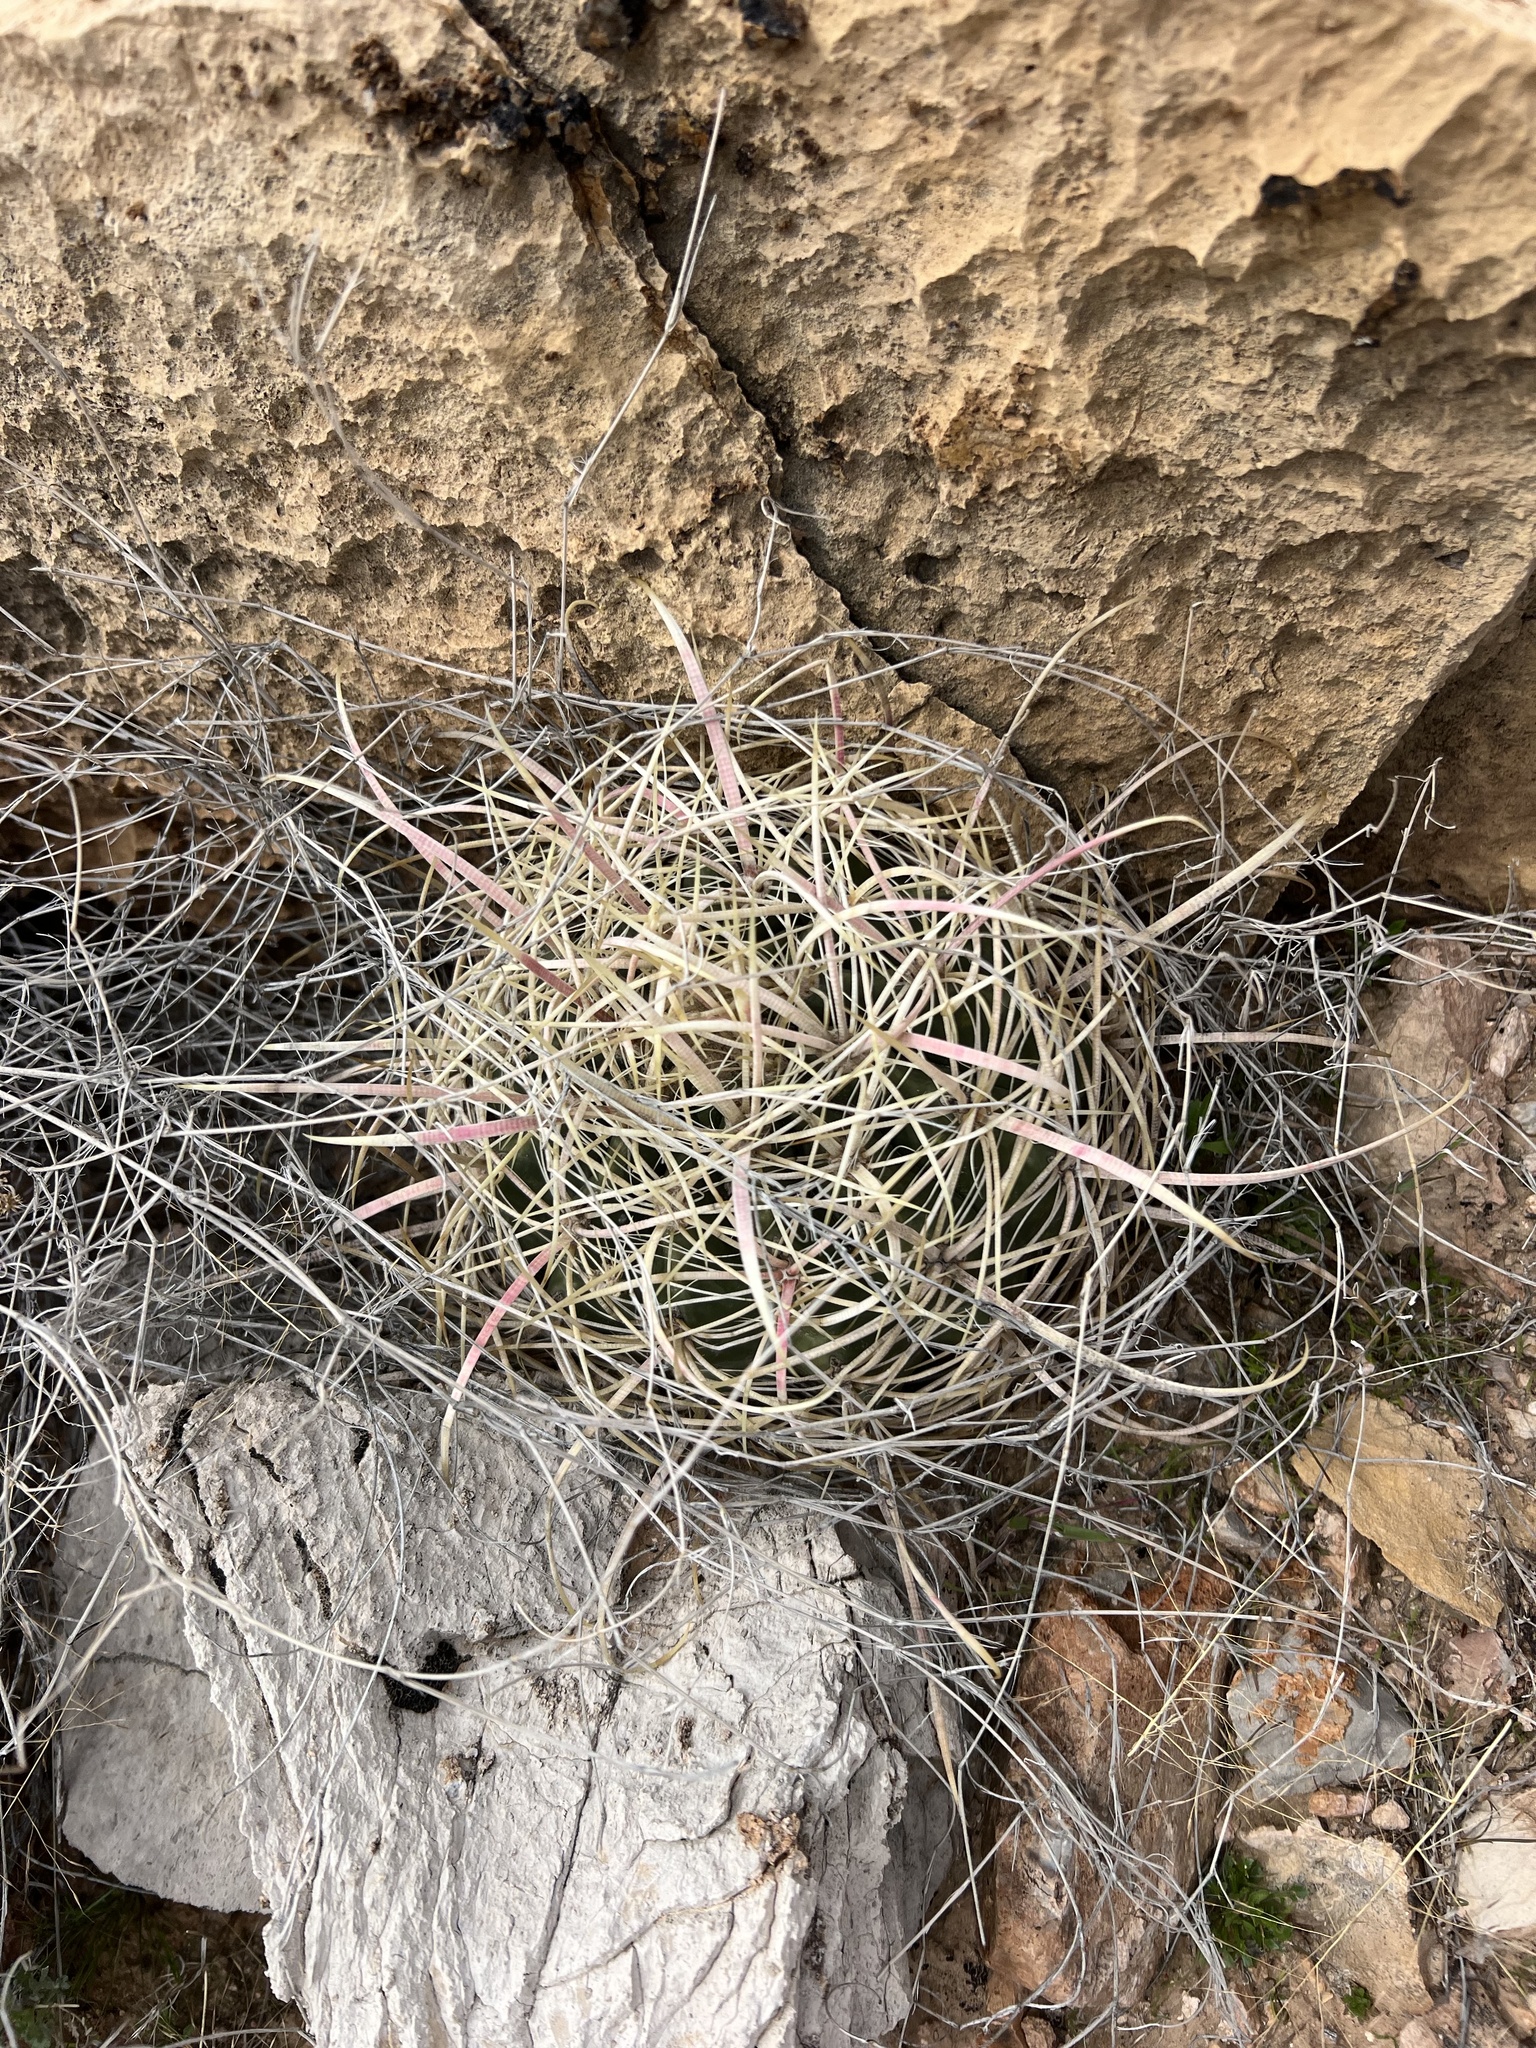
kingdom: Plantae
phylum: Tracheophyta
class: Magnoliopsida
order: Caryophyllales
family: Cactaceae
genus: Ferocactus
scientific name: Ferocactus cylindraceus
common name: California barrel cactus
